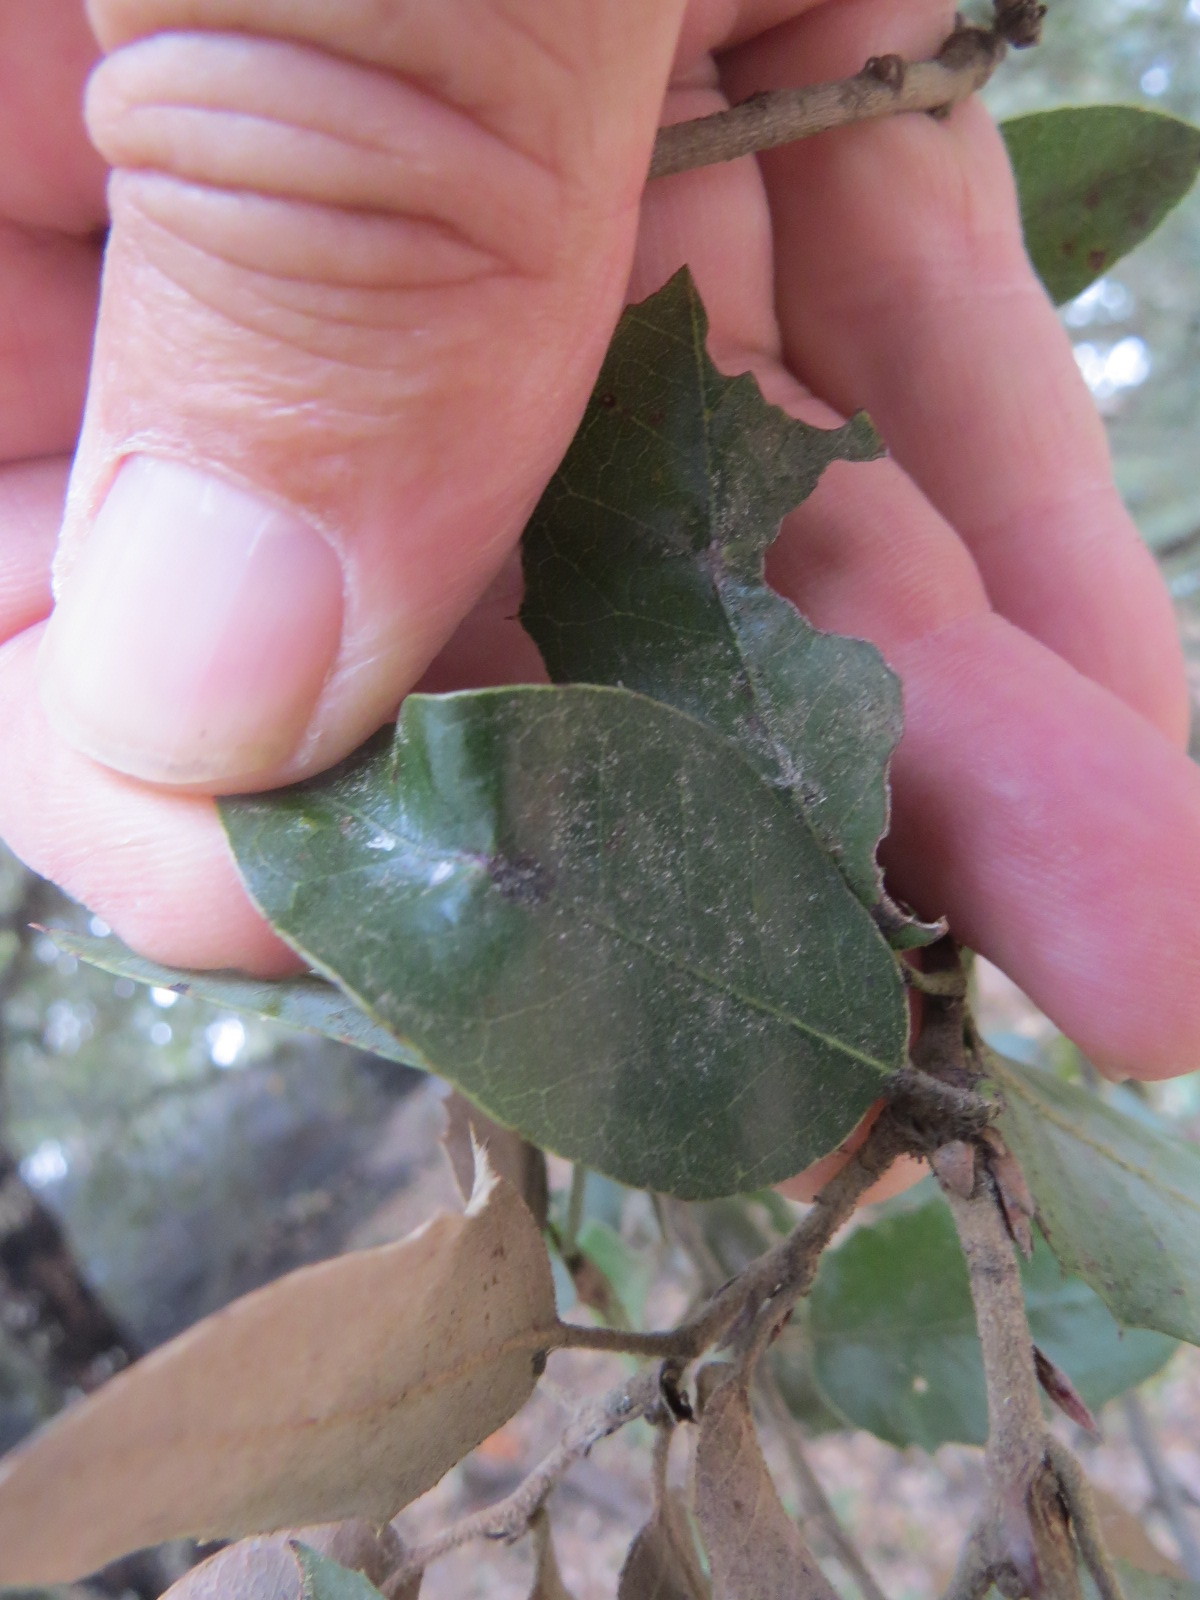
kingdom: Animalia
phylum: Arthropoda
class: Insecta
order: Hymenoptera
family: Cynipidae
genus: Disholandricus
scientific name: Disholandricus
